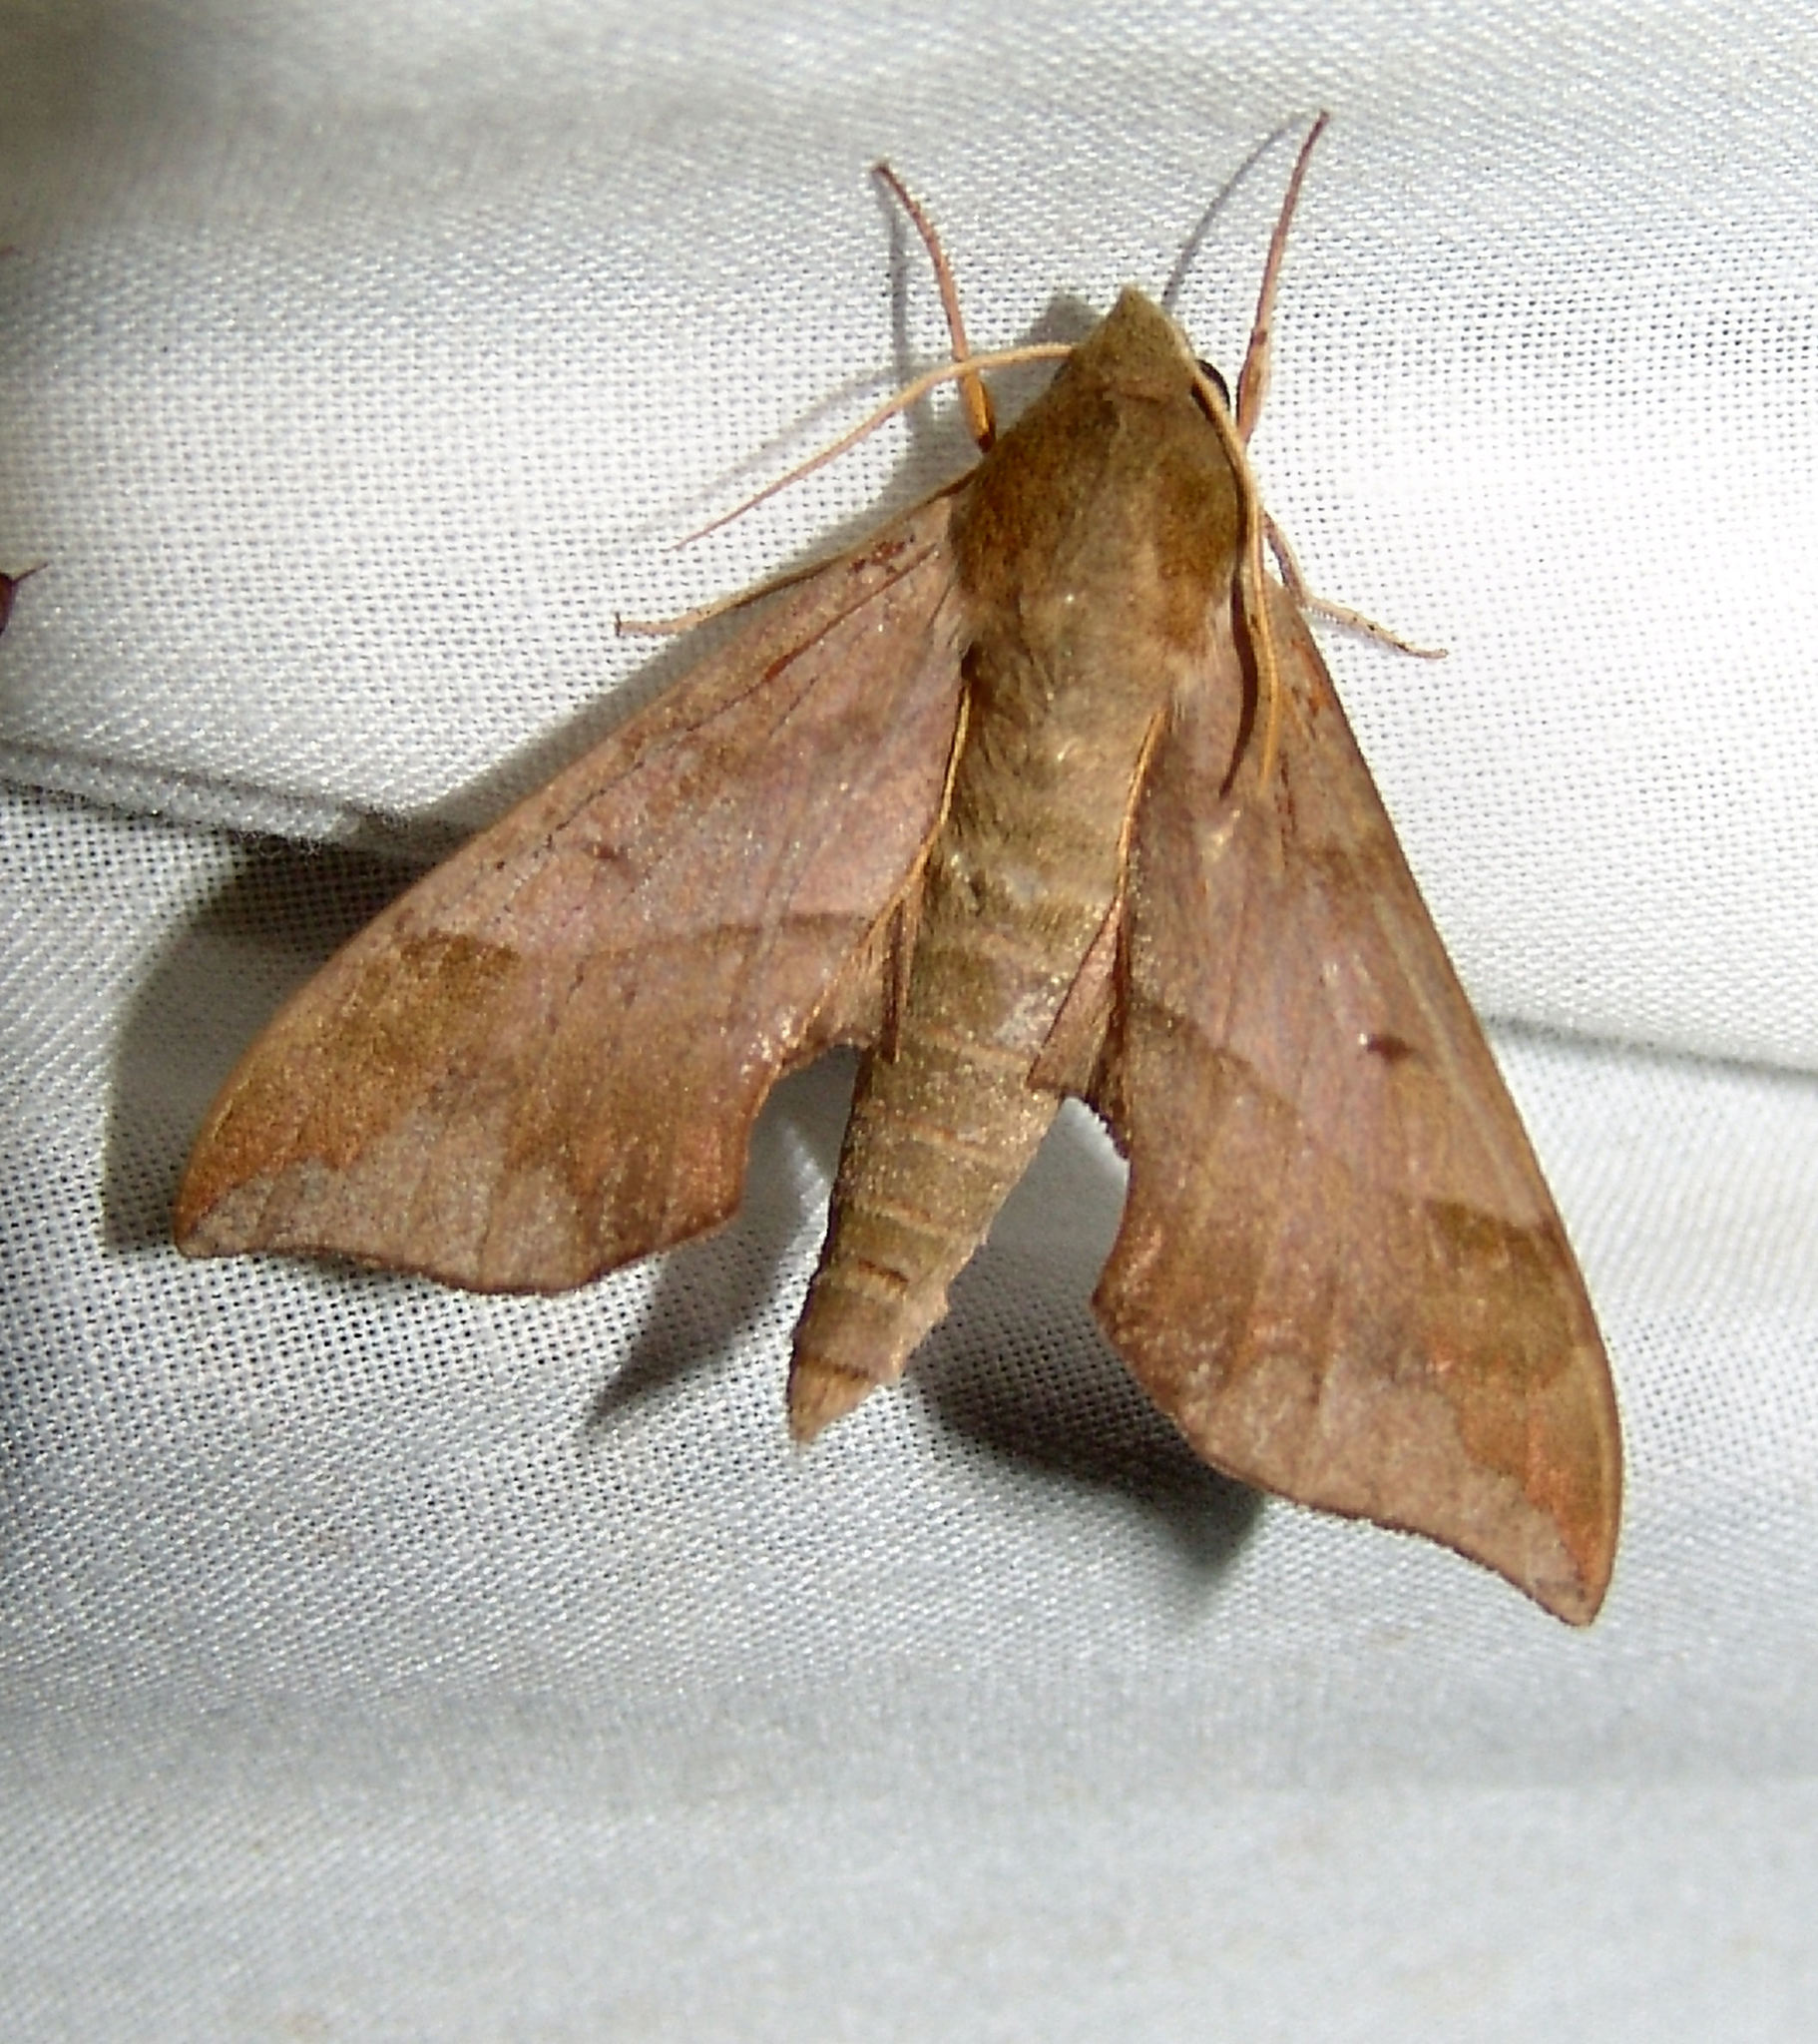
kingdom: Animalia
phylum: Arthropoda
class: Insecta
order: Lepidoptera
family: Sphingidae
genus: Darapsa
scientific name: Darapsa myron
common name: Hog sphinx
